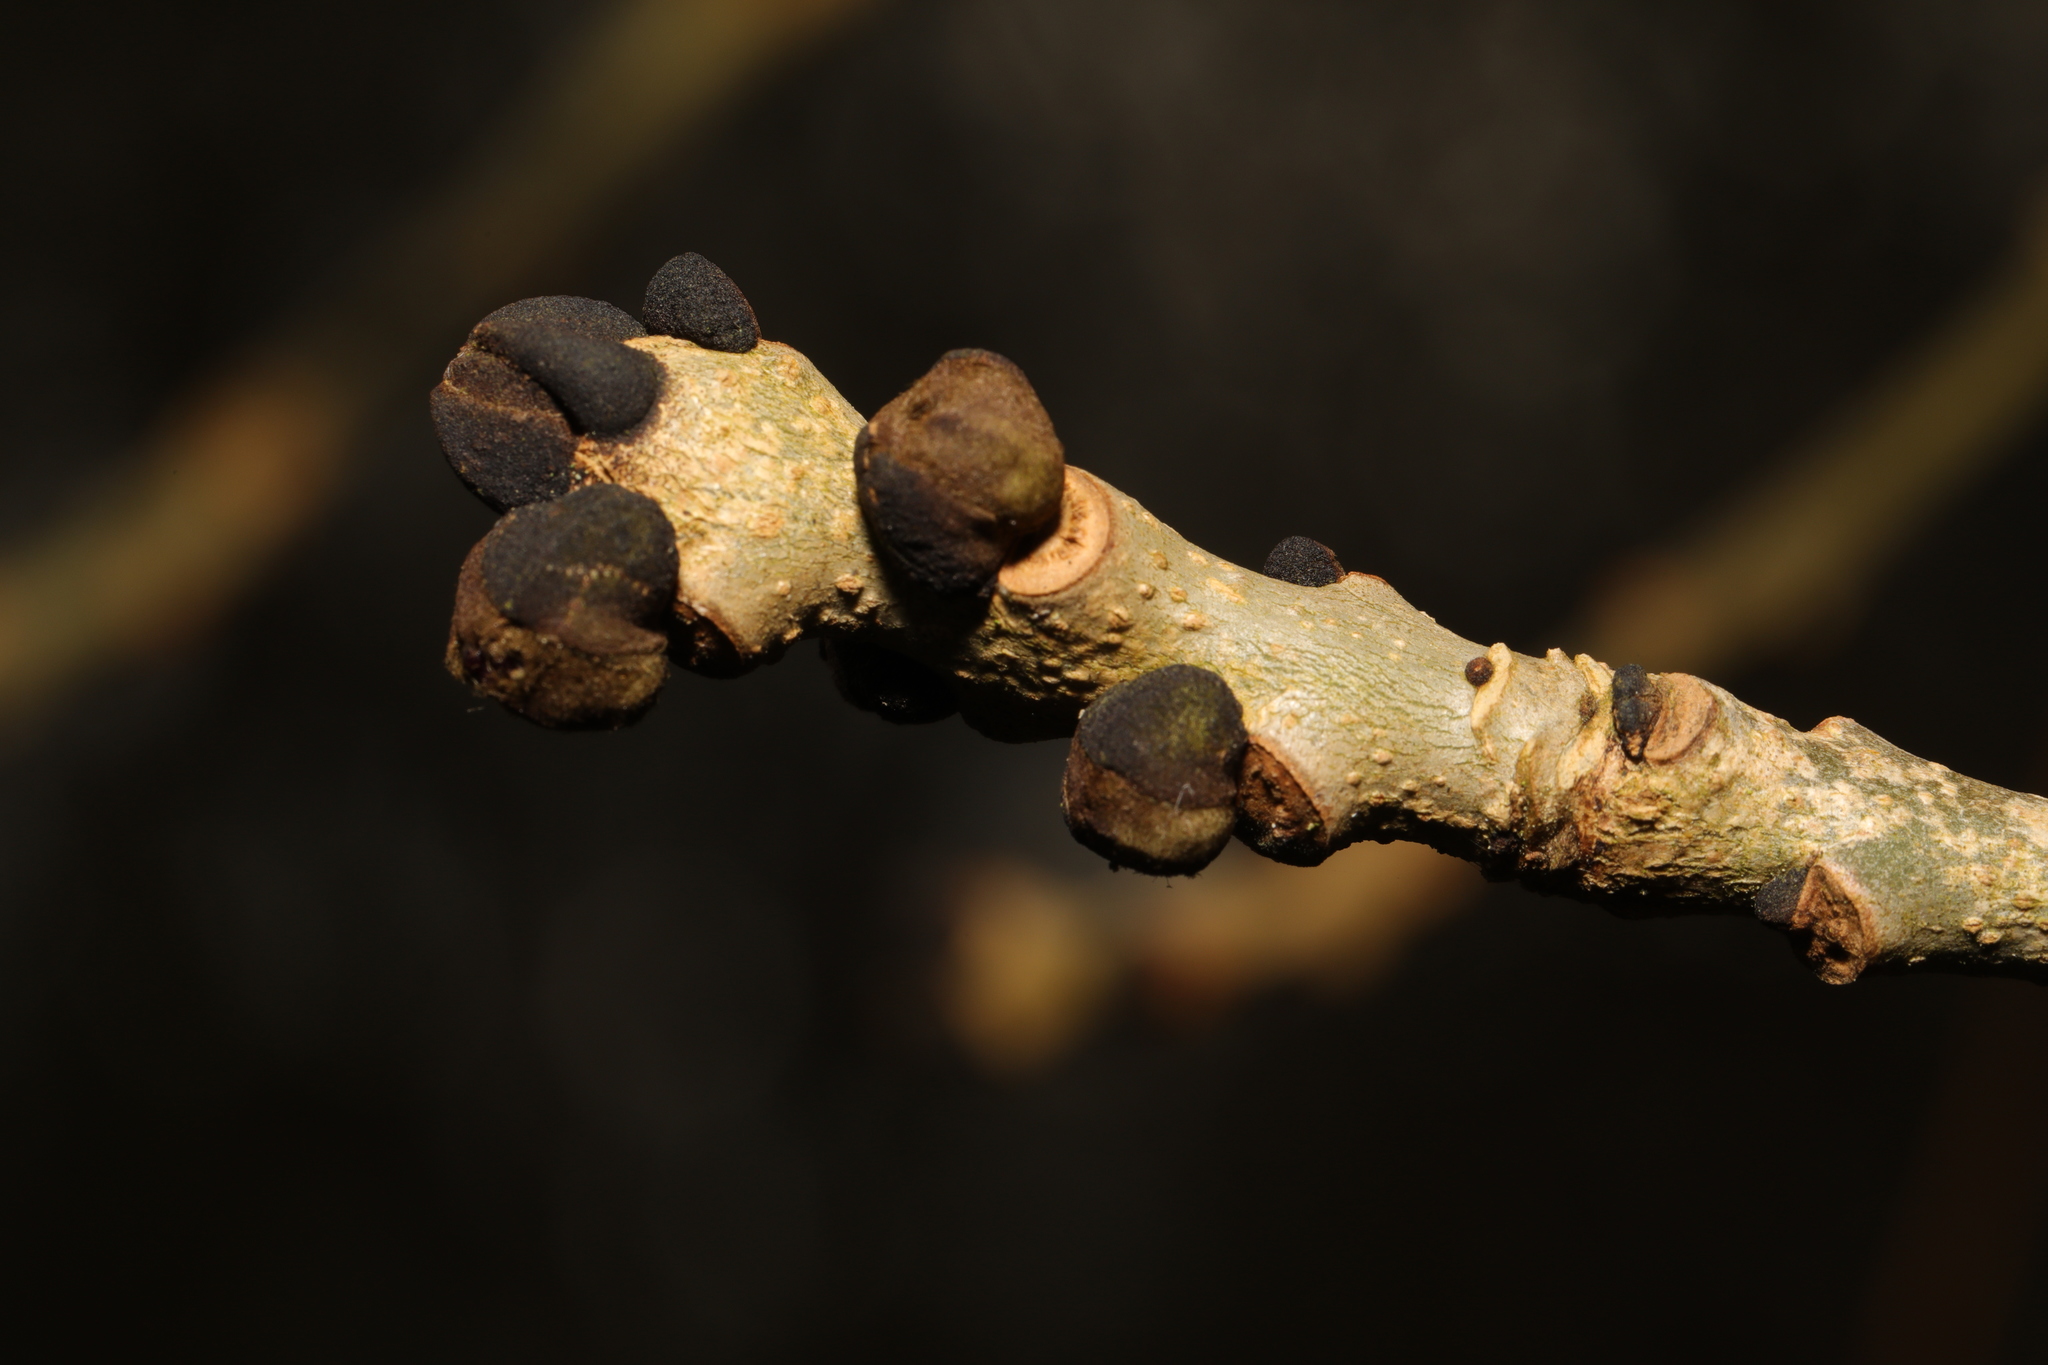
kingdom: Plantae
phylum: Tracheophyta
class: Magnoliopsida
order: Lamiales
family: Oleaceae
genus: Fraxinus
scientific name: Fraxinus excelsior
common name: European ash
